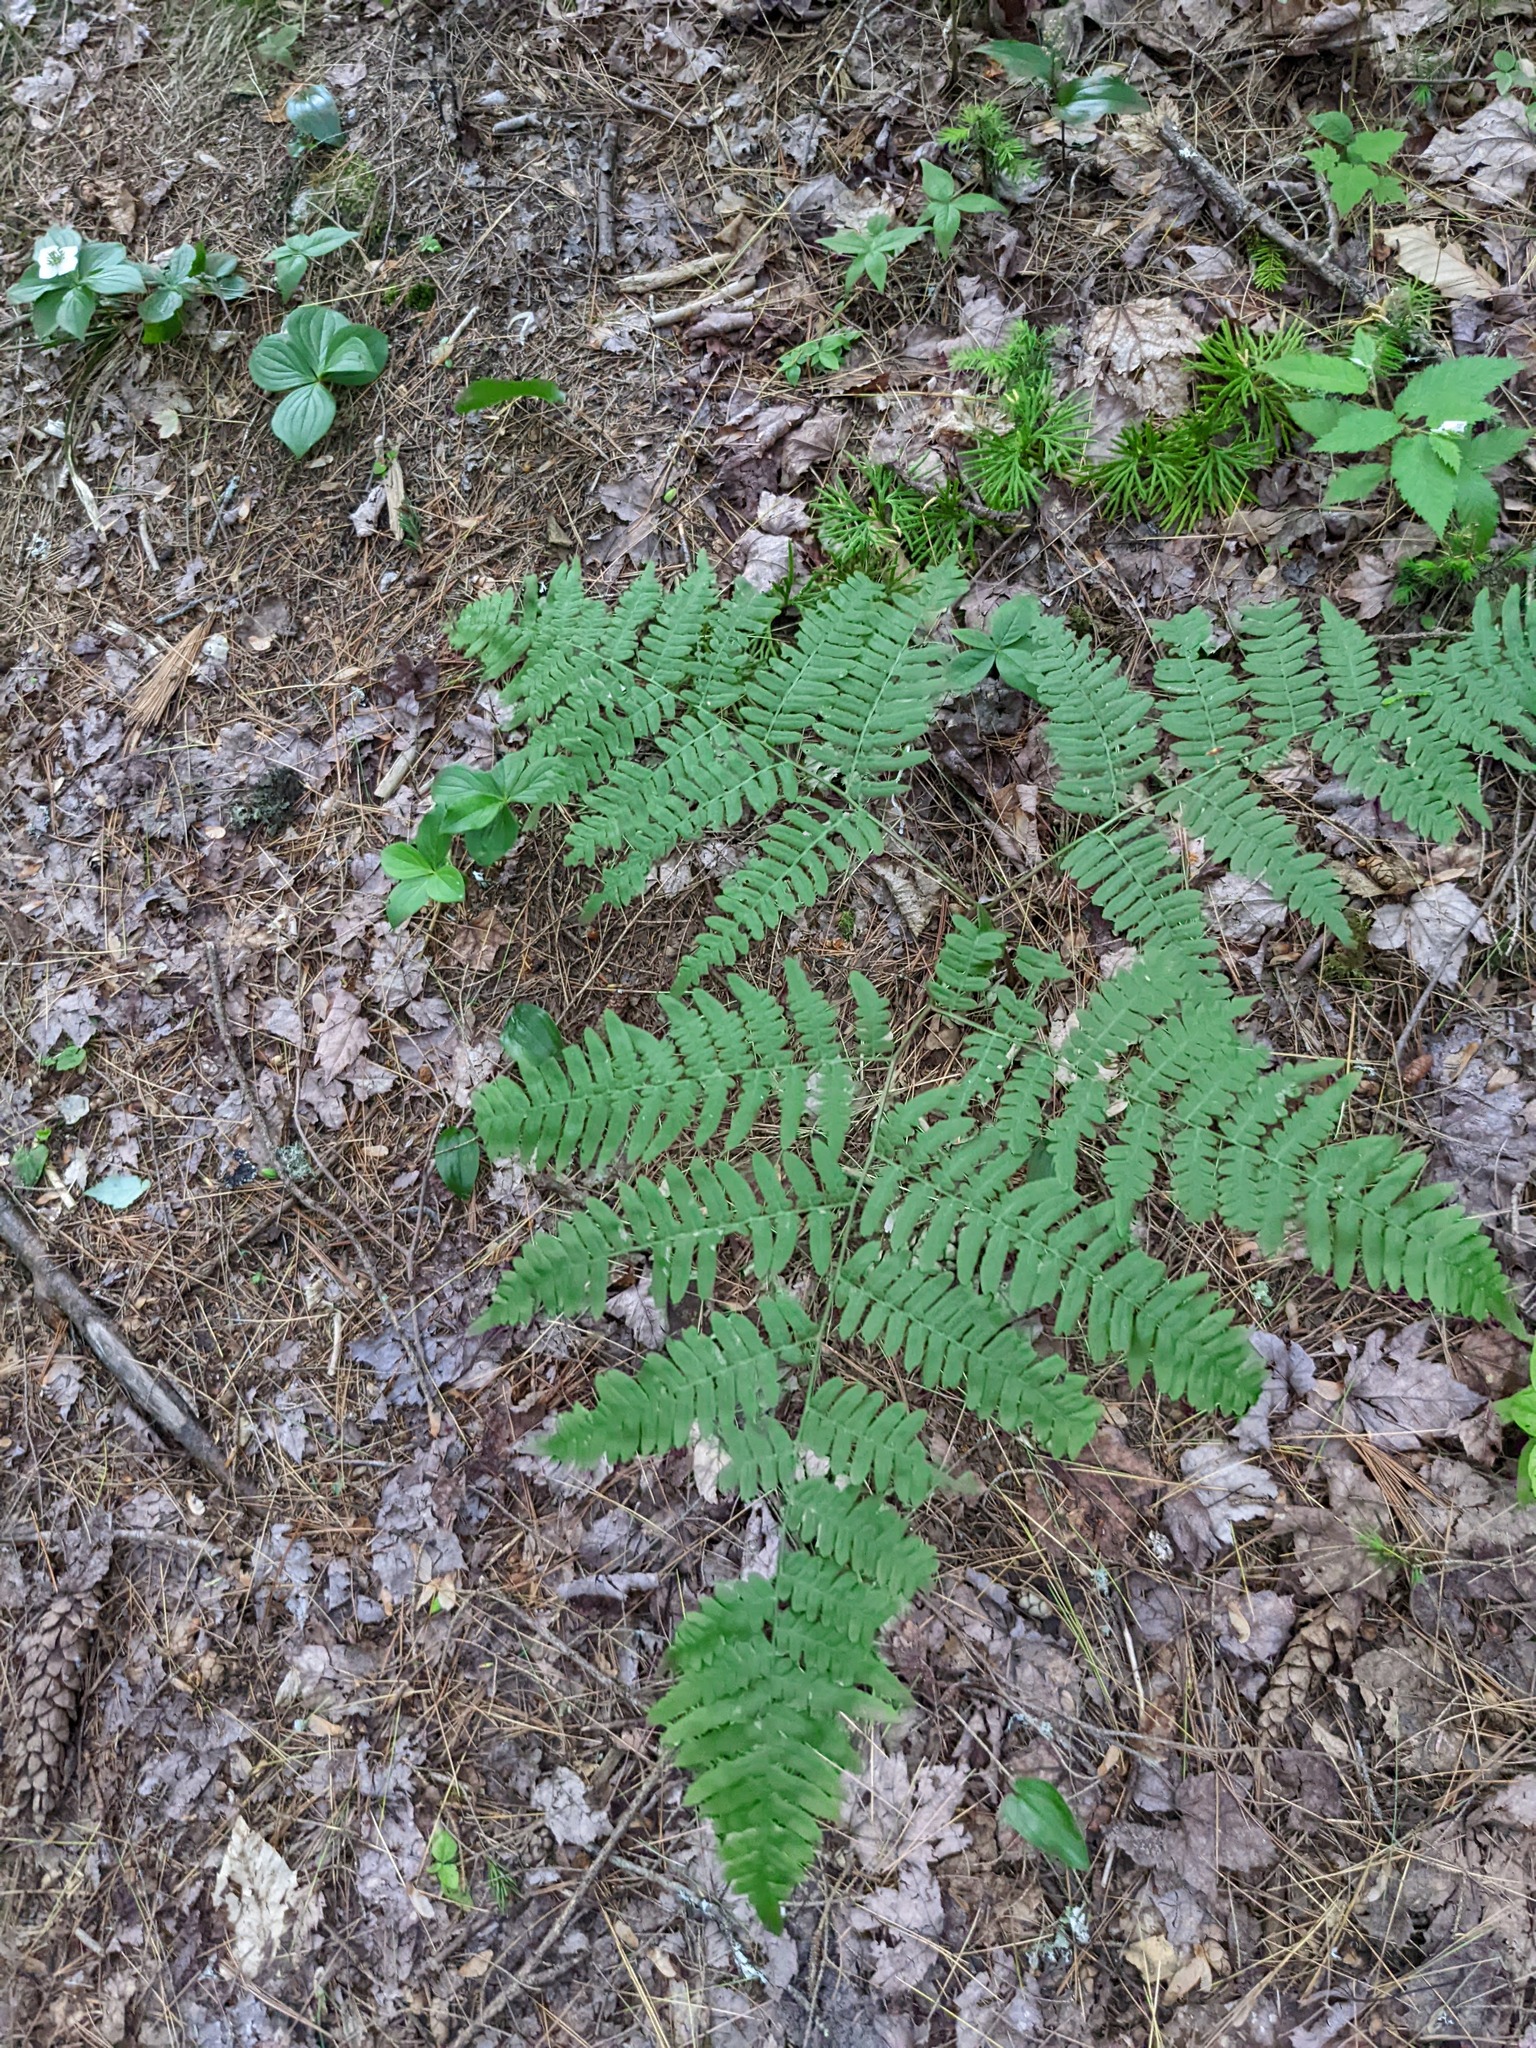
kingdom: Plantae
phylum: Tracheophyta
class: Polypodiopsida
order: Polypodiales
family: Dennstaedtiaceae
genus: Pteridium
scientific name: Pteridium aquilinum
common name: Bracken
